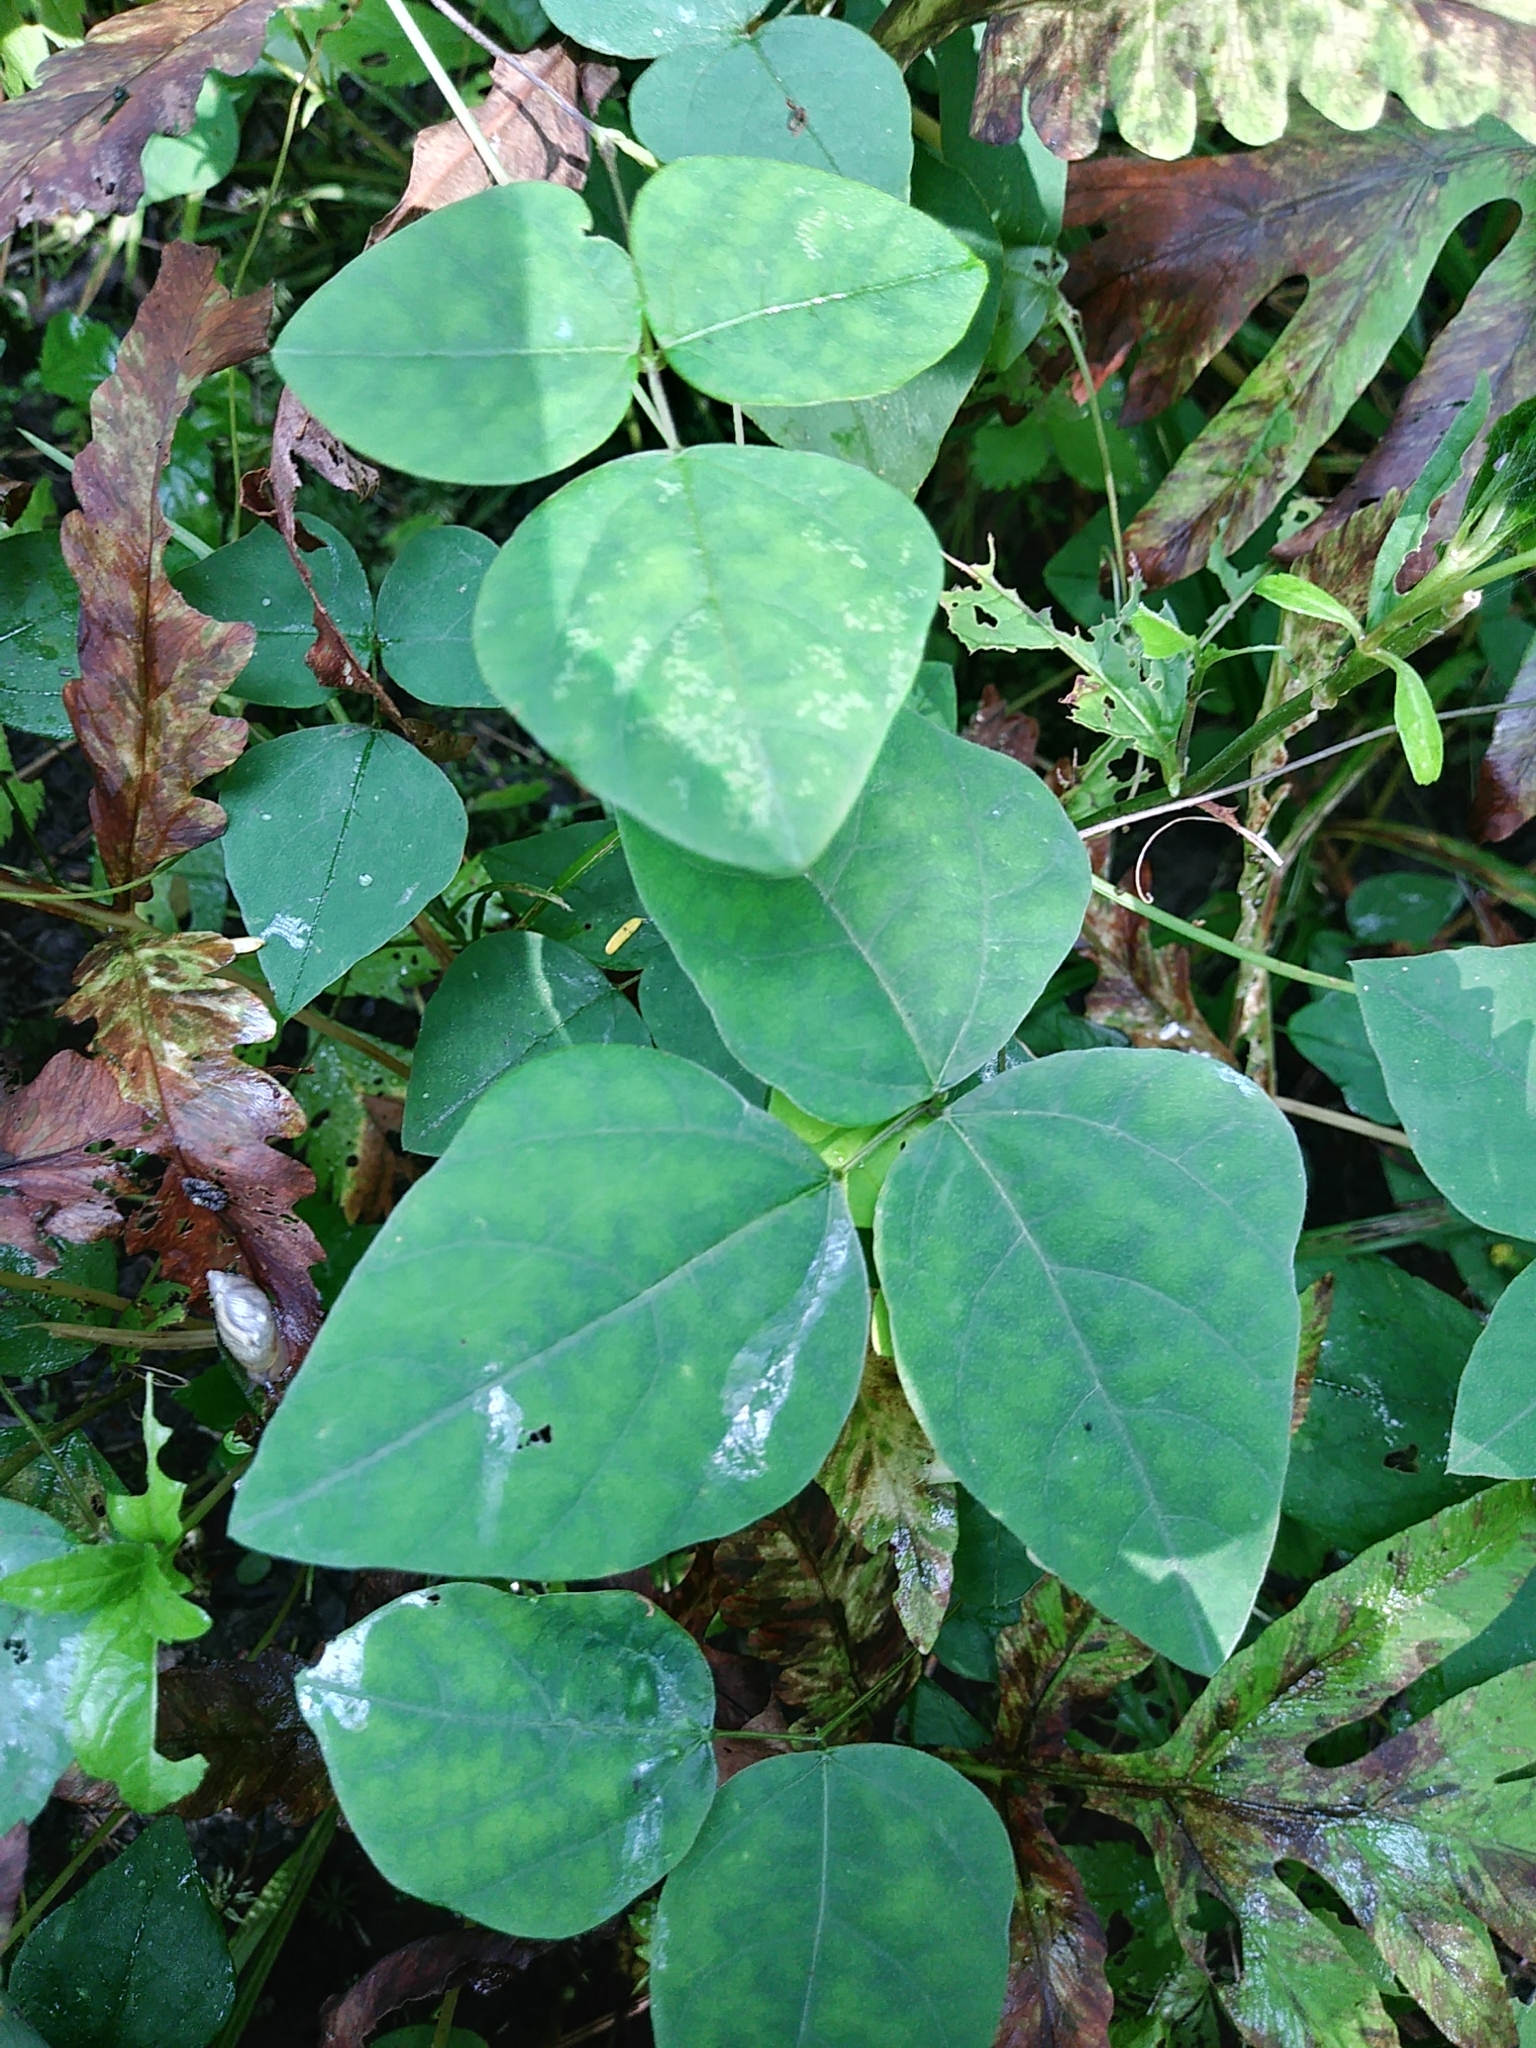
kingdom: Plantae
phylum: Tracheophyta
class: Magnoliopsida
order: Fabales
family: Fabaceae
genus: Amphicarpaea
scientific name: Amphicarpaea bracteata
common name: American hog peanut
